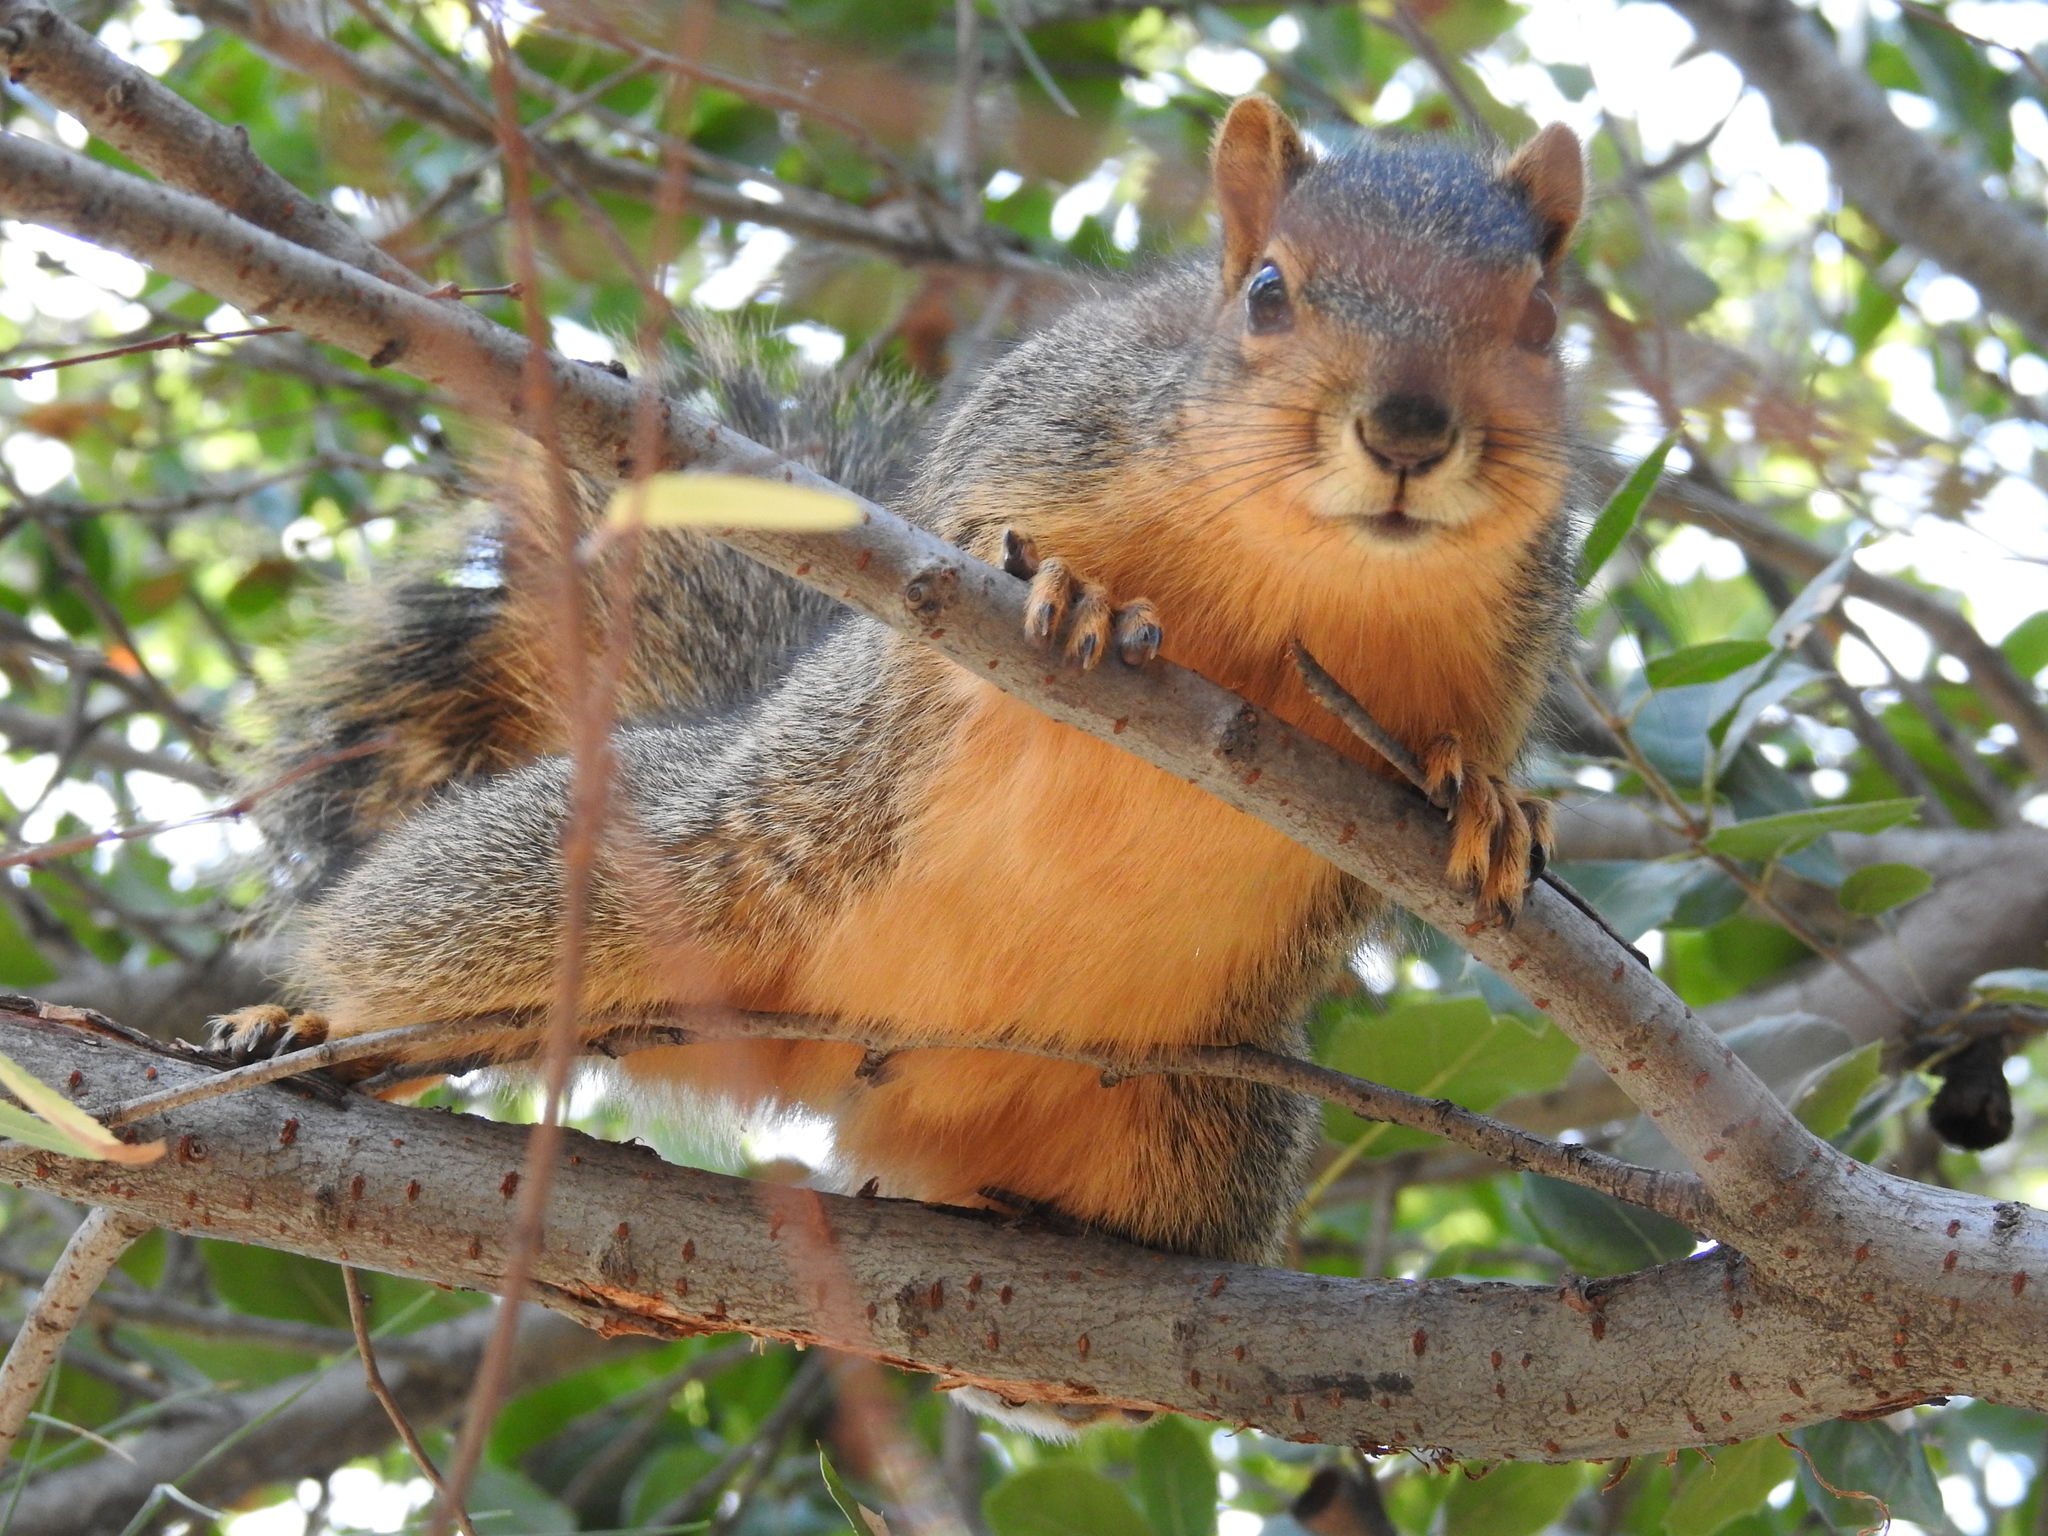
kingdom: Animalia
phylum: Chordata
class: Mammalia
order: Rodentia
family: Sciuridae
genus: Sciurus
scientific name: Sciurus niger
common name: Fox squirrel
